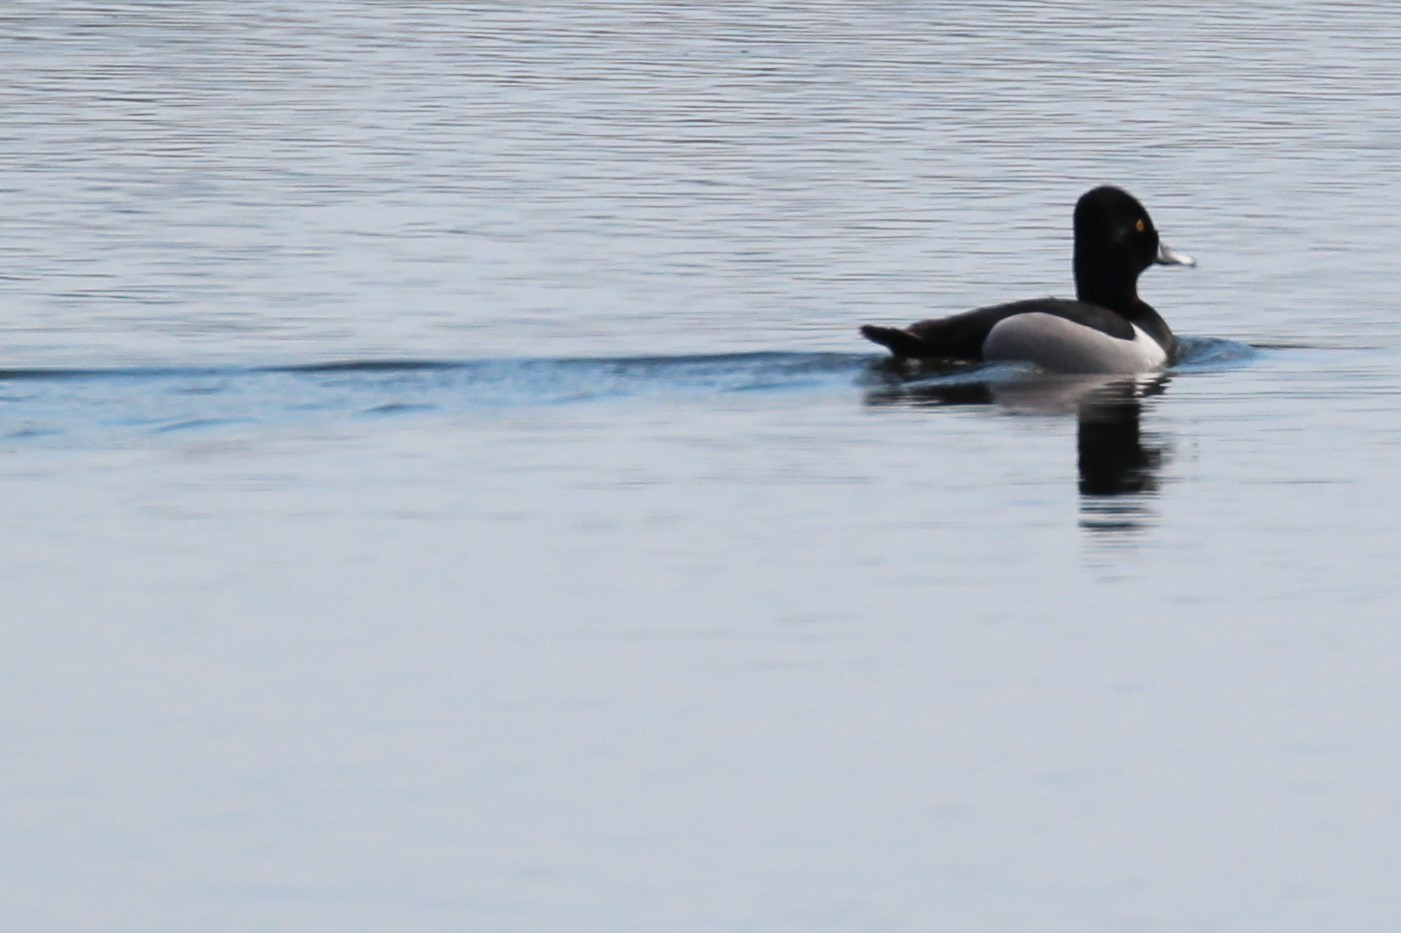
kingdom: Animalia
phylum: Chordata
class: Aves
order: Anseriformes
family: Anatidae
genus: Aythya
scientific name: Aythya collaris
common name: Ring-necked duck
